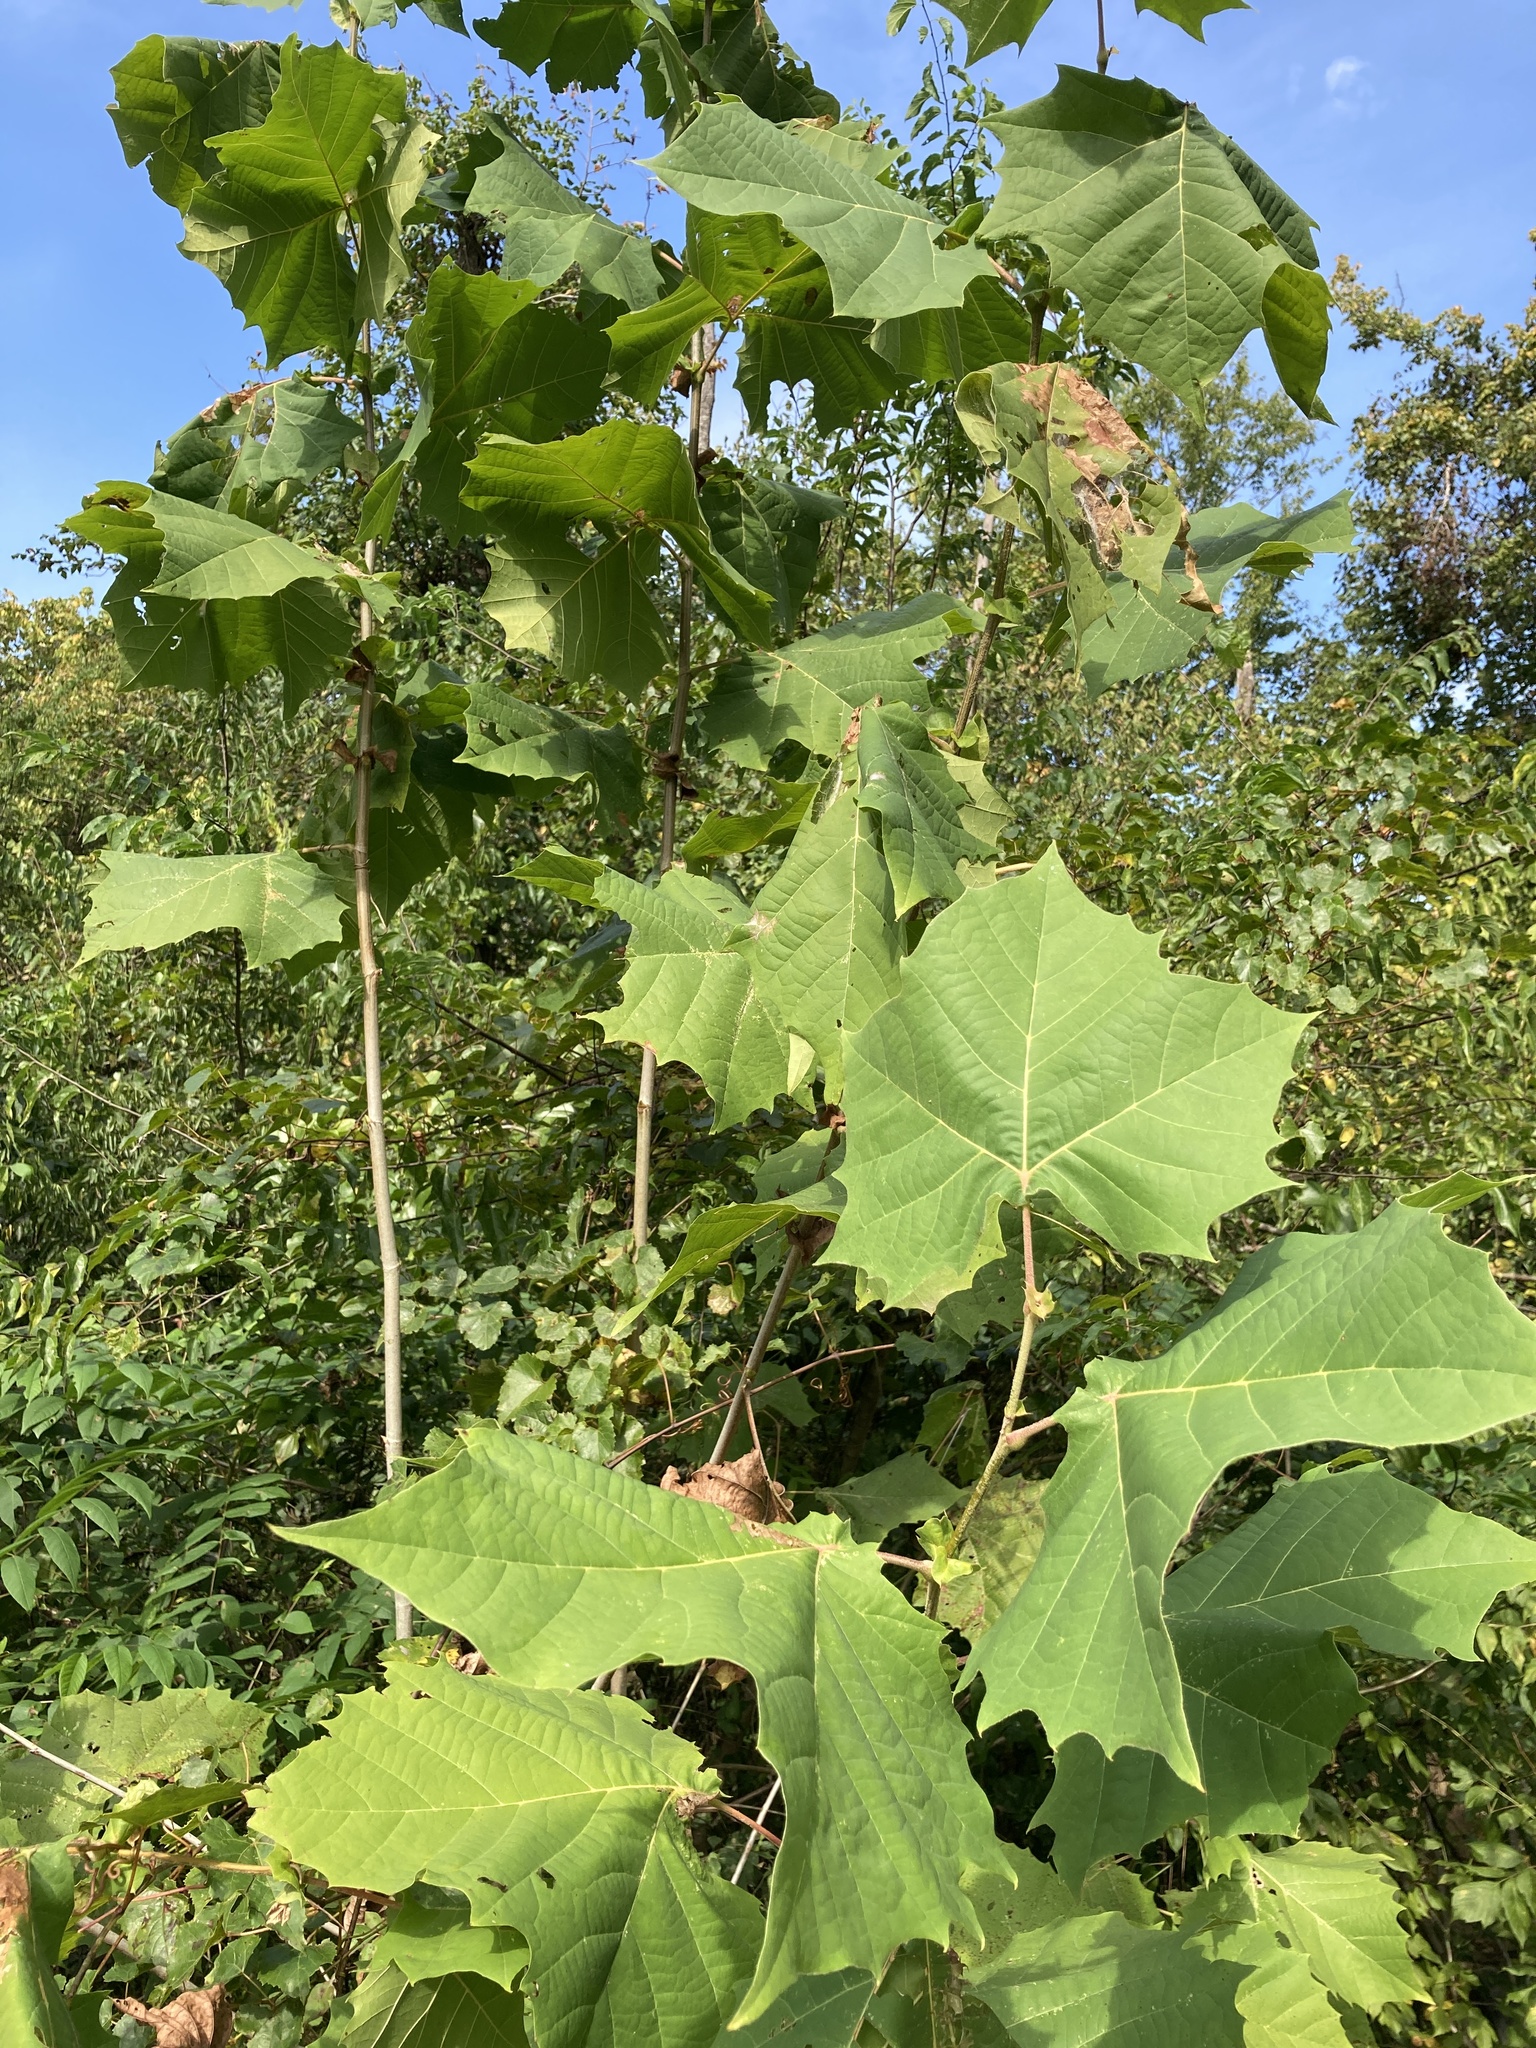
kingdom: Plantae
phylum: Tracheophyta
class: Magnoliopsida
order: Proteales
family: Platanaceae
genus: Platanus
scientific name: Platanus occidentalis
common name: American sycamore
